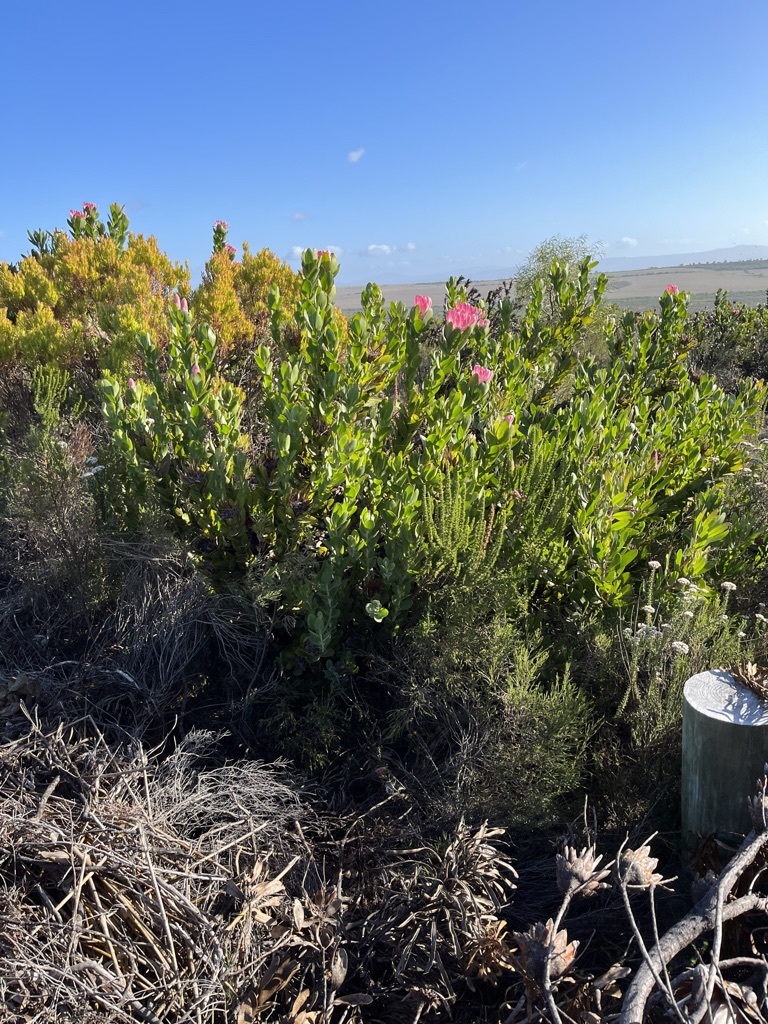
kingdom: Plantae
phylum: Tracheophyta
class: Magnoliopsida
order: Proteales
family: Proteaceae
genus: Protea
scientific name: Protea compacta
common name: Bot river protea
